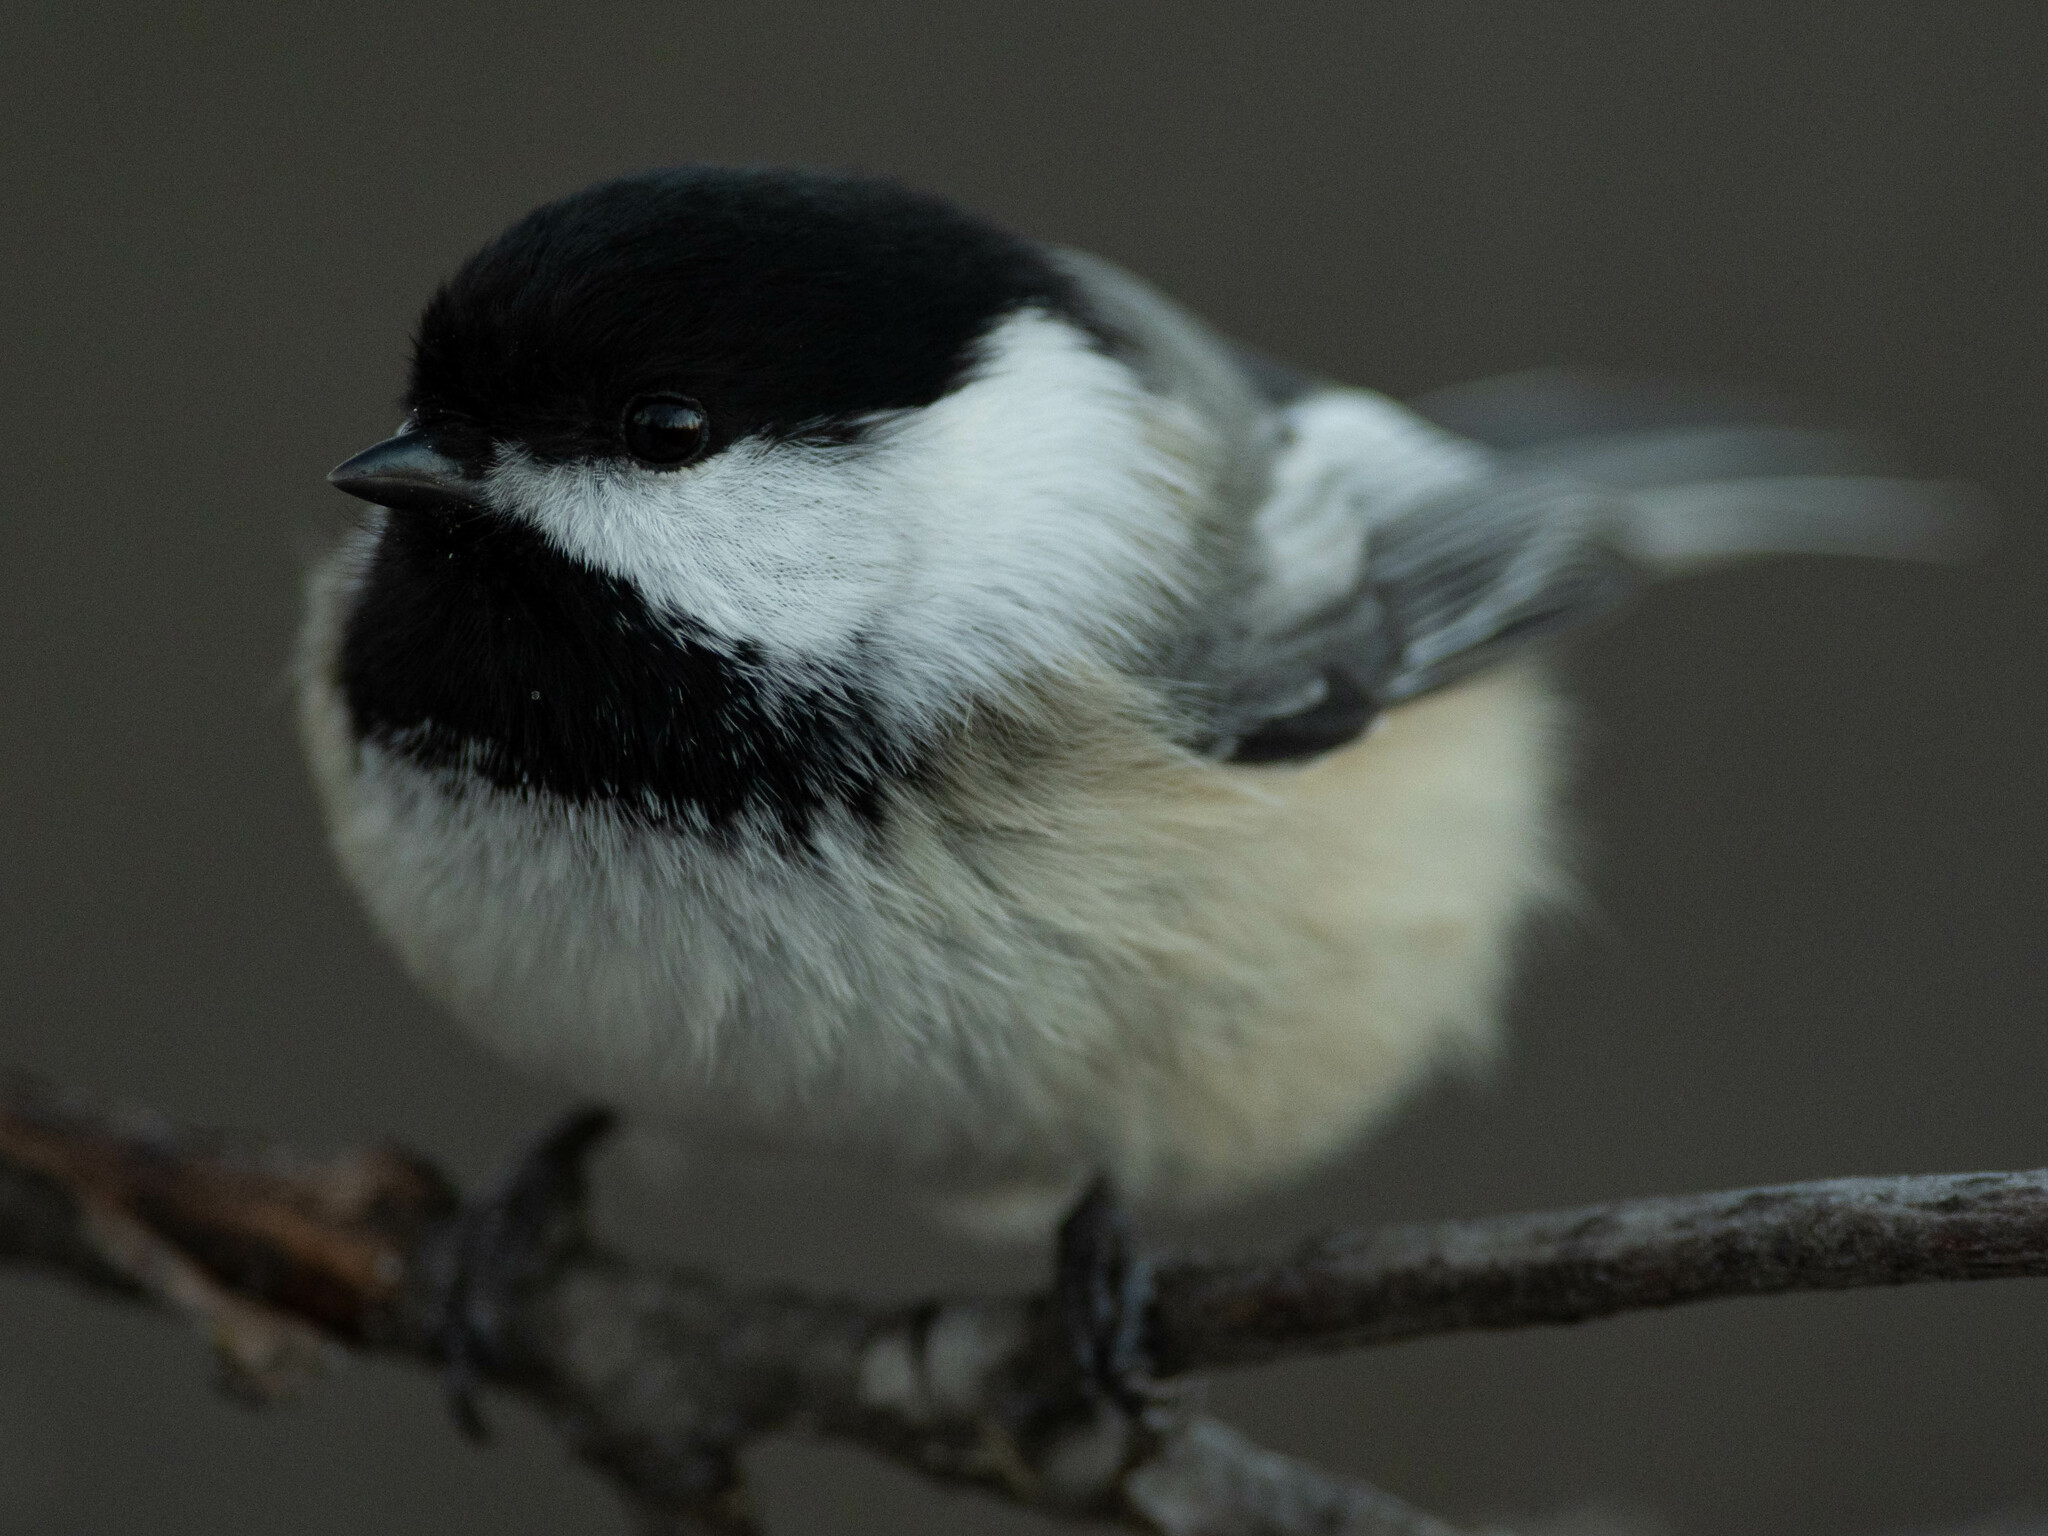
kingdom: Animalia
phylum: Chordata
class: Aves
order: Passeriformes
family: Paridae
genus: Poecile
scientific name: Poecile atricapillus
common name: Black-capped chickadee
